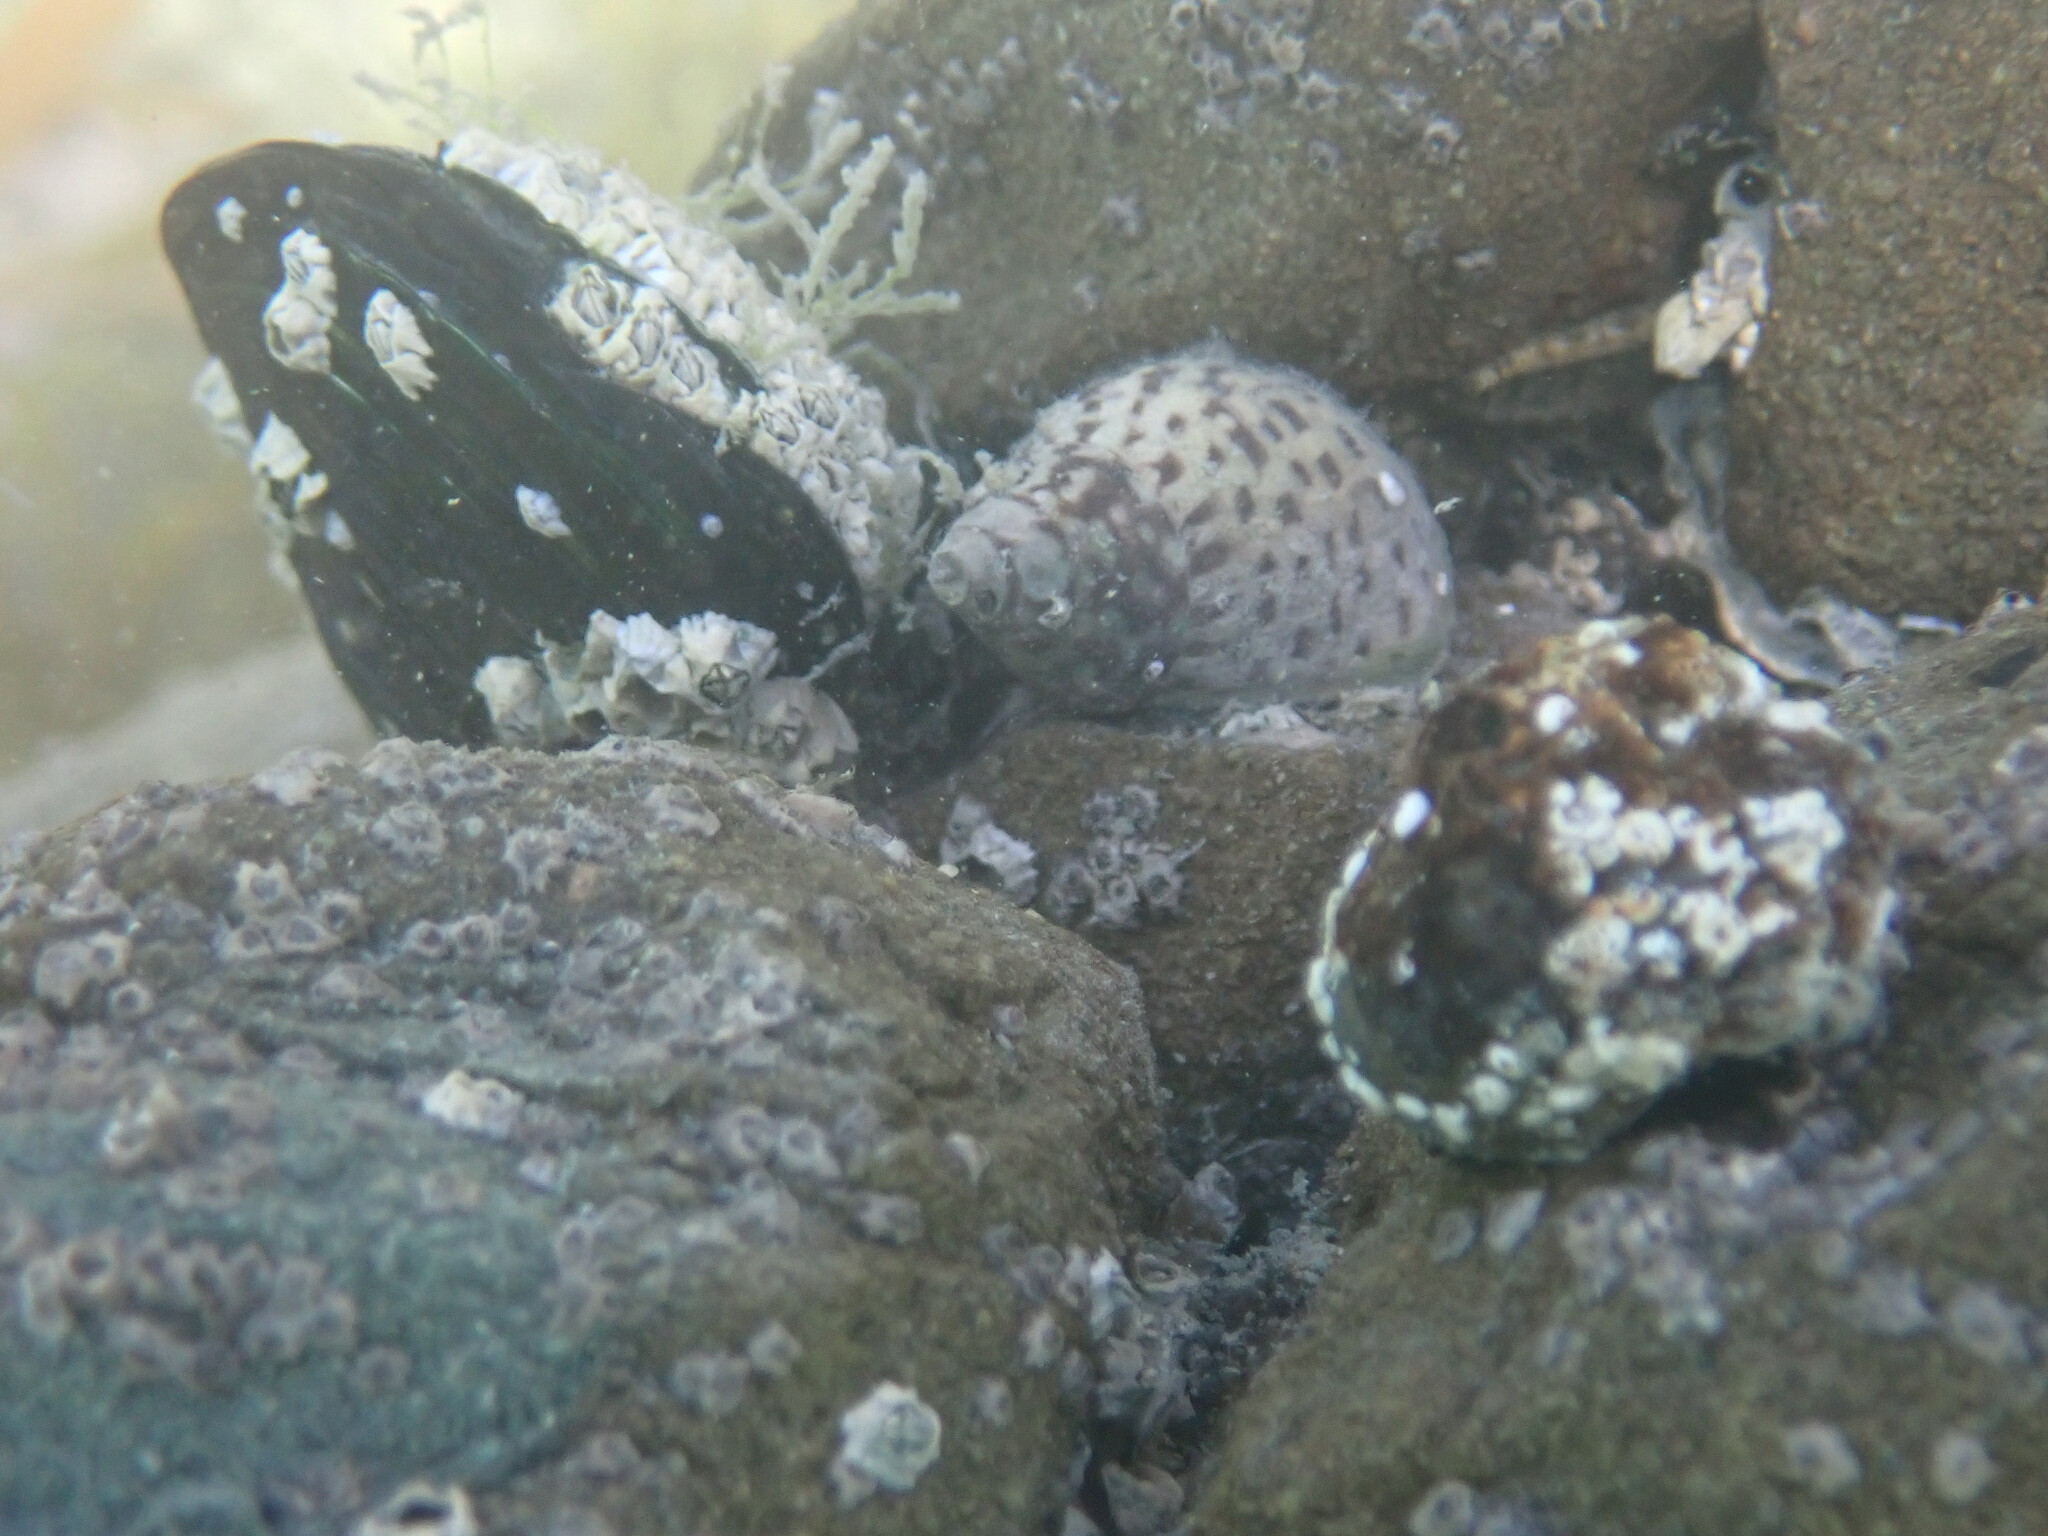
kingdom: Animalia
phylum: Mollusca
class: Gastropoda
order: Neogastropoda
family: Cominellidae
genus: Cominella
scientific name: Cominella maculosa
